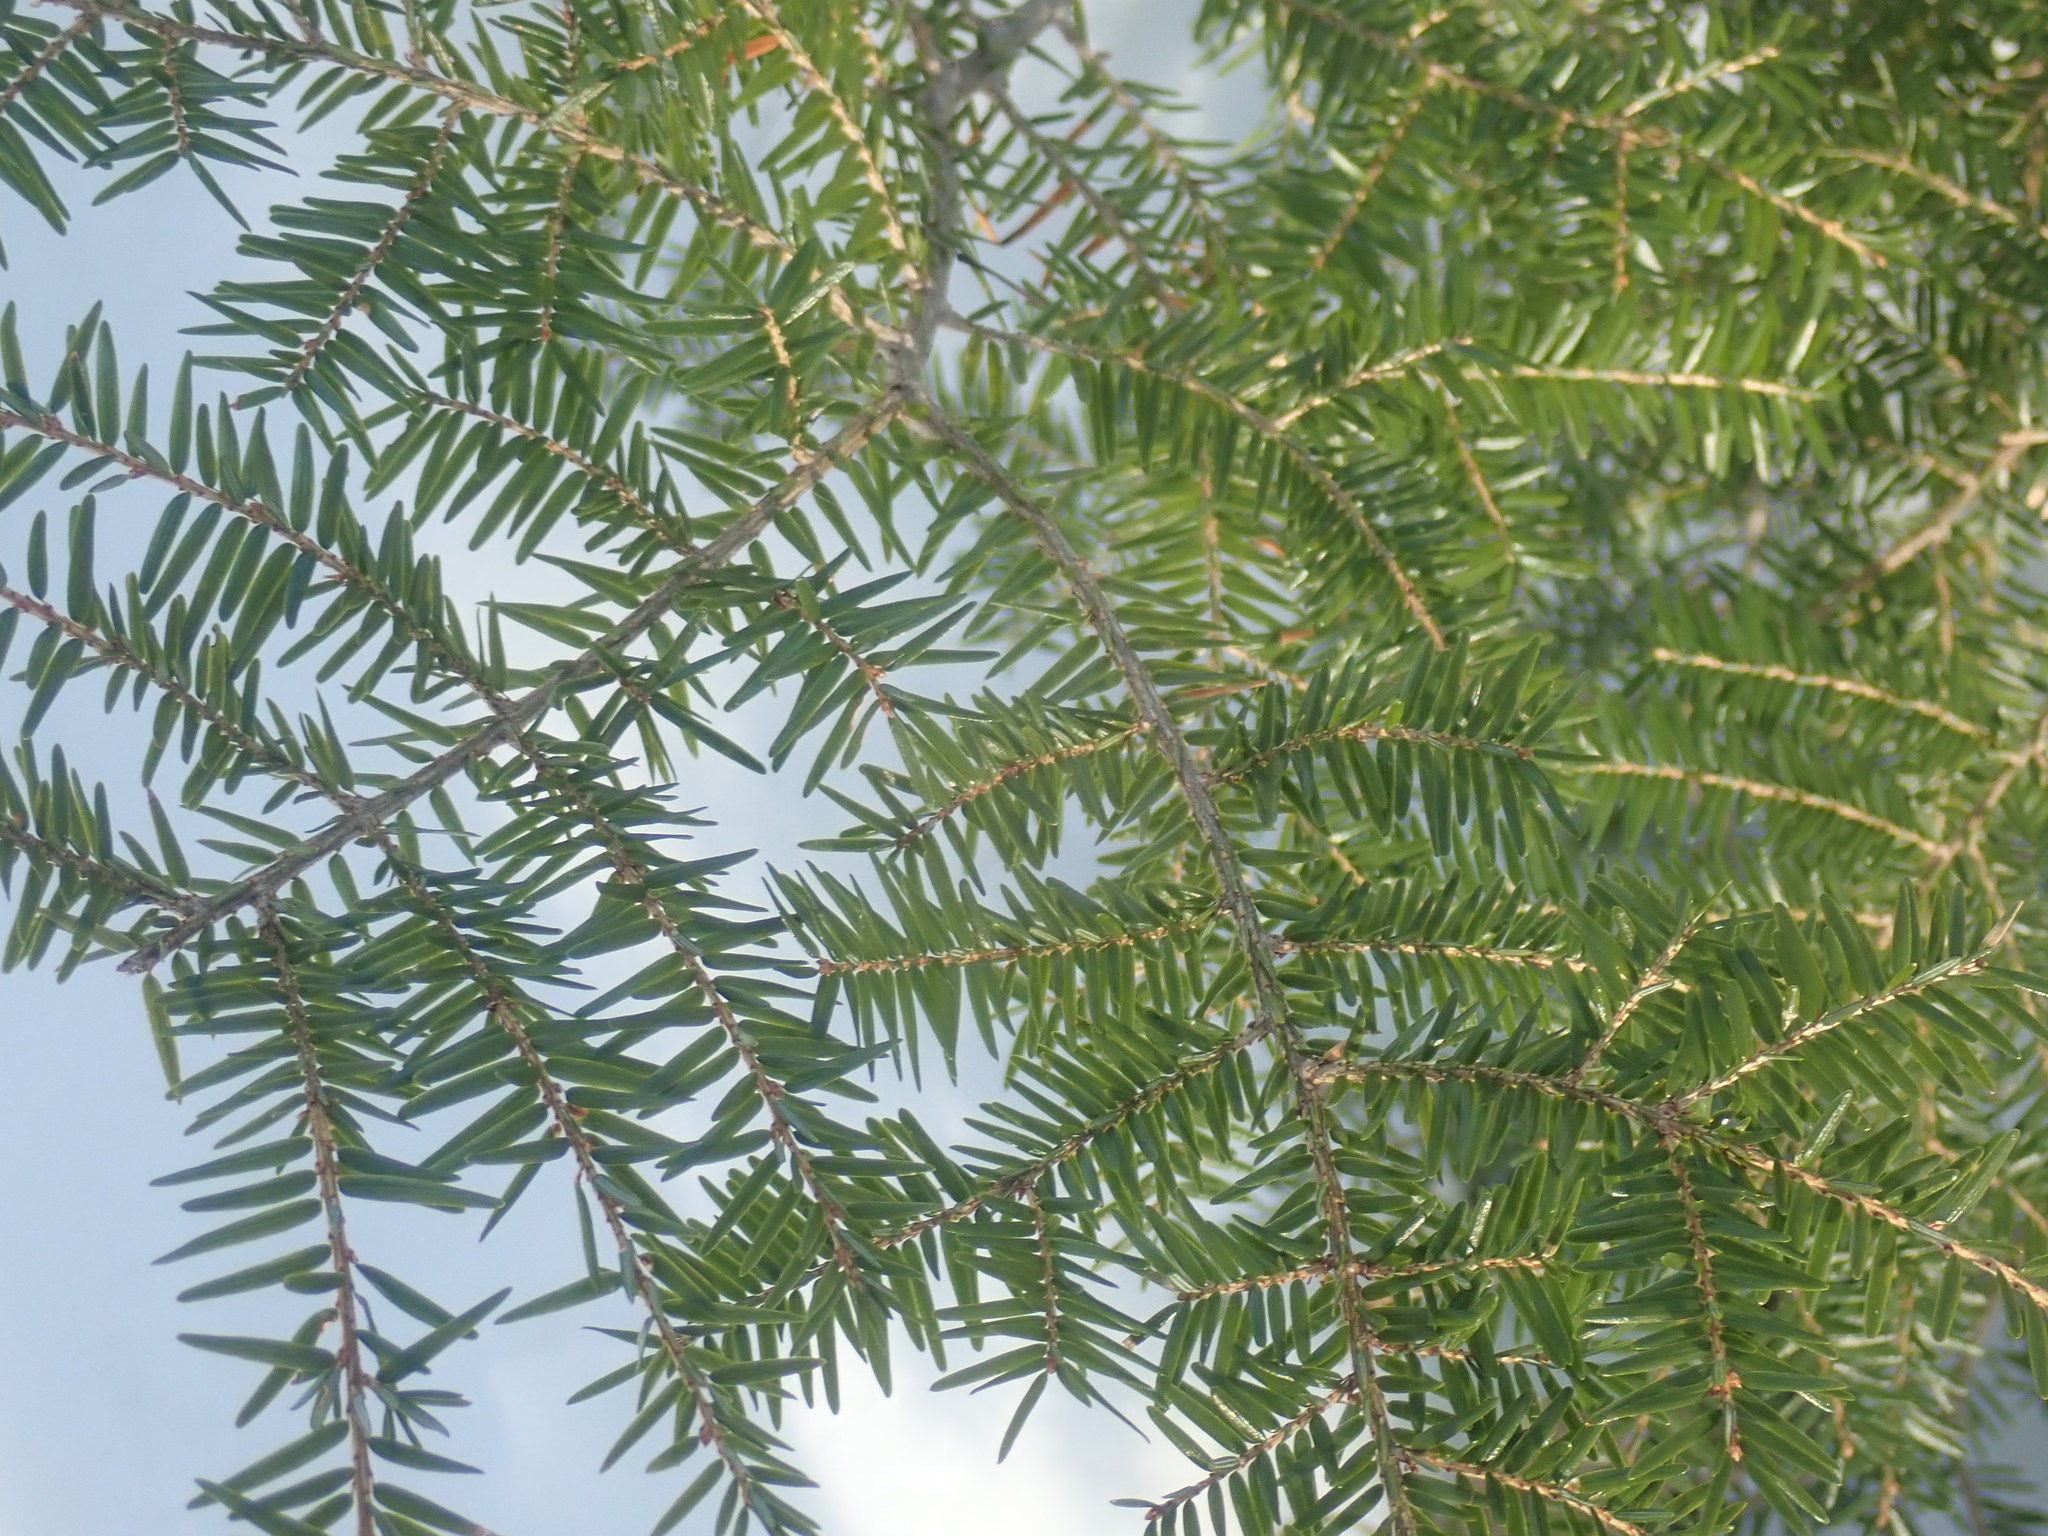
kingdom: Plantae
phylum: Tracheophyta
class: Pinopsida
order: Pinales
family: Pinaceae
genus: Tsuga
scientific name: Tsuga canadensis
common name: Eastern hemlock
